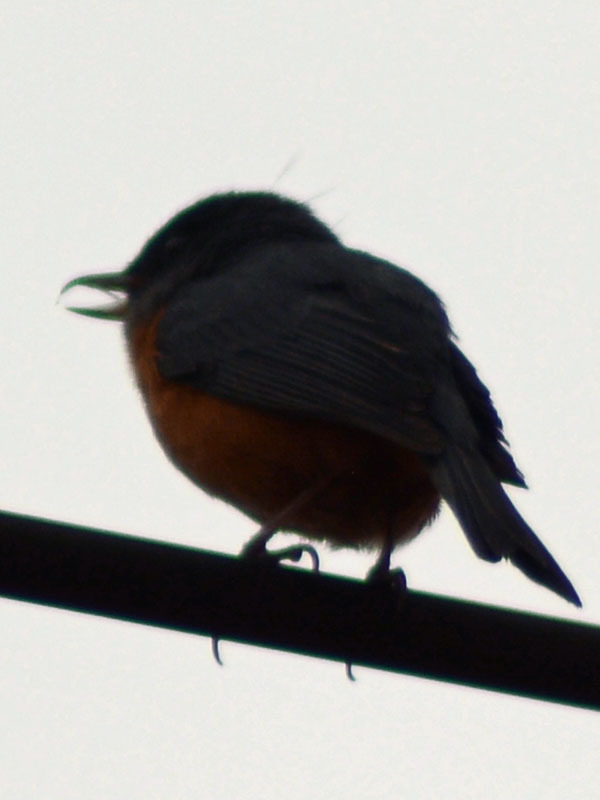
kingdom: Animalia
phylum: Chordata
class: Aves
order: Passeriformes
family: Thraupidae
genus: Diglossa
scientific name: Diglossa baritula
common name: Cinnamon-bellied flowerpiercer
